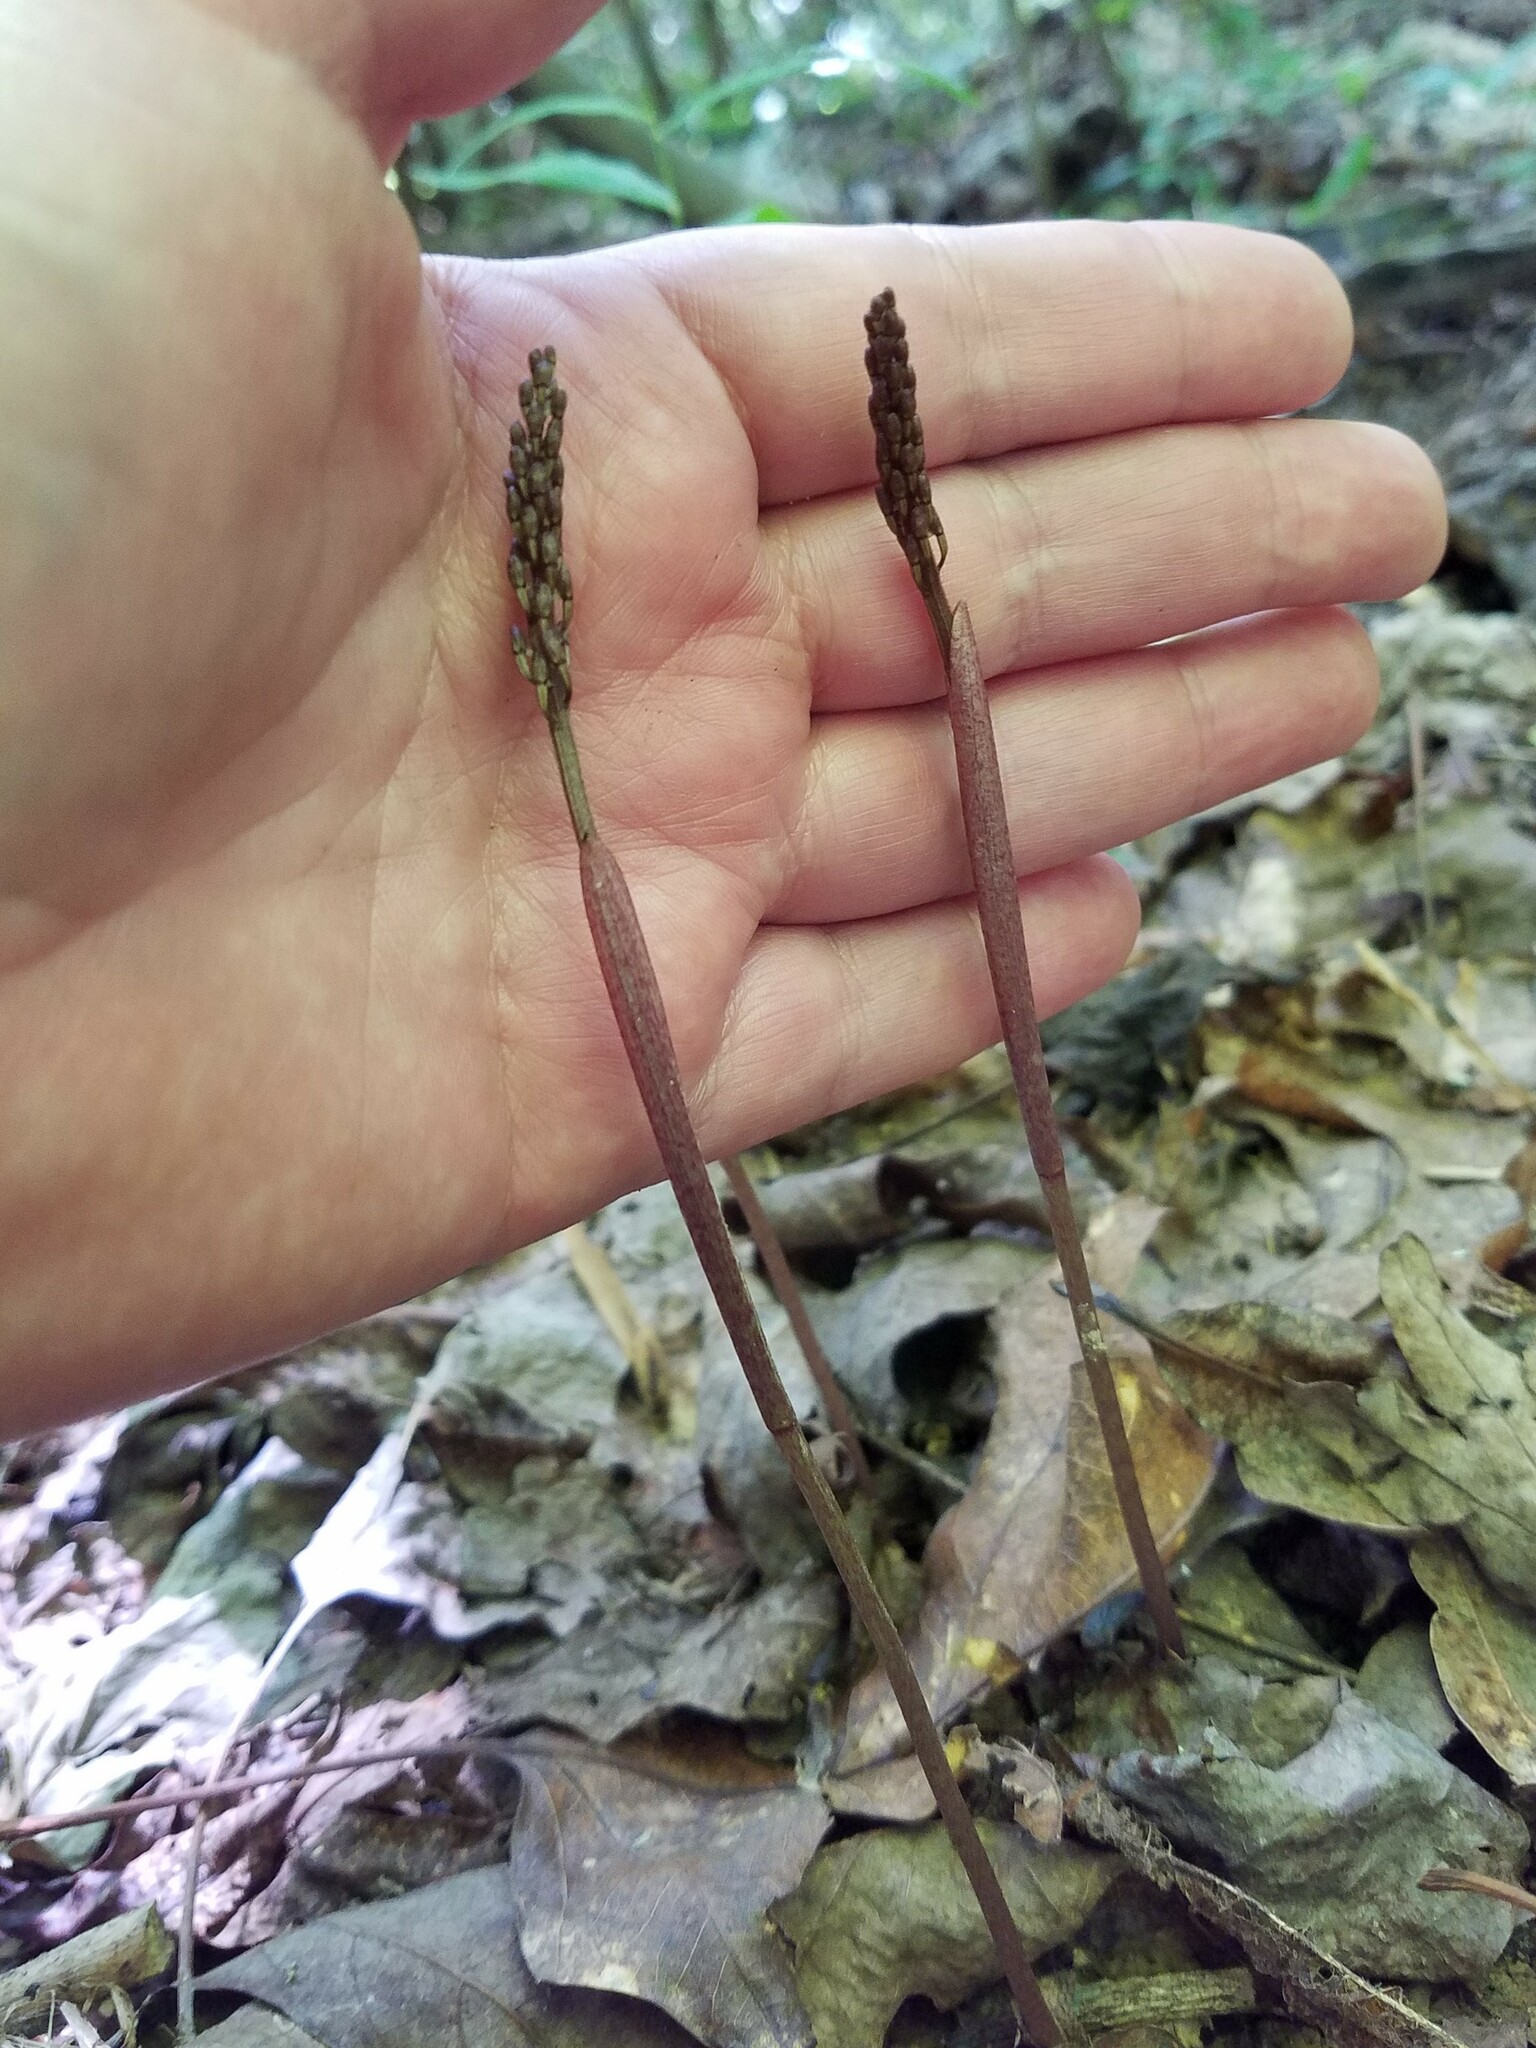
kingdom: Plantae
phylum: Tracheophyta
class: Liliopsida
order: Asparagales
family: Orchidaceae
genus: Tipularia
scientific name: Tipularia discolor
